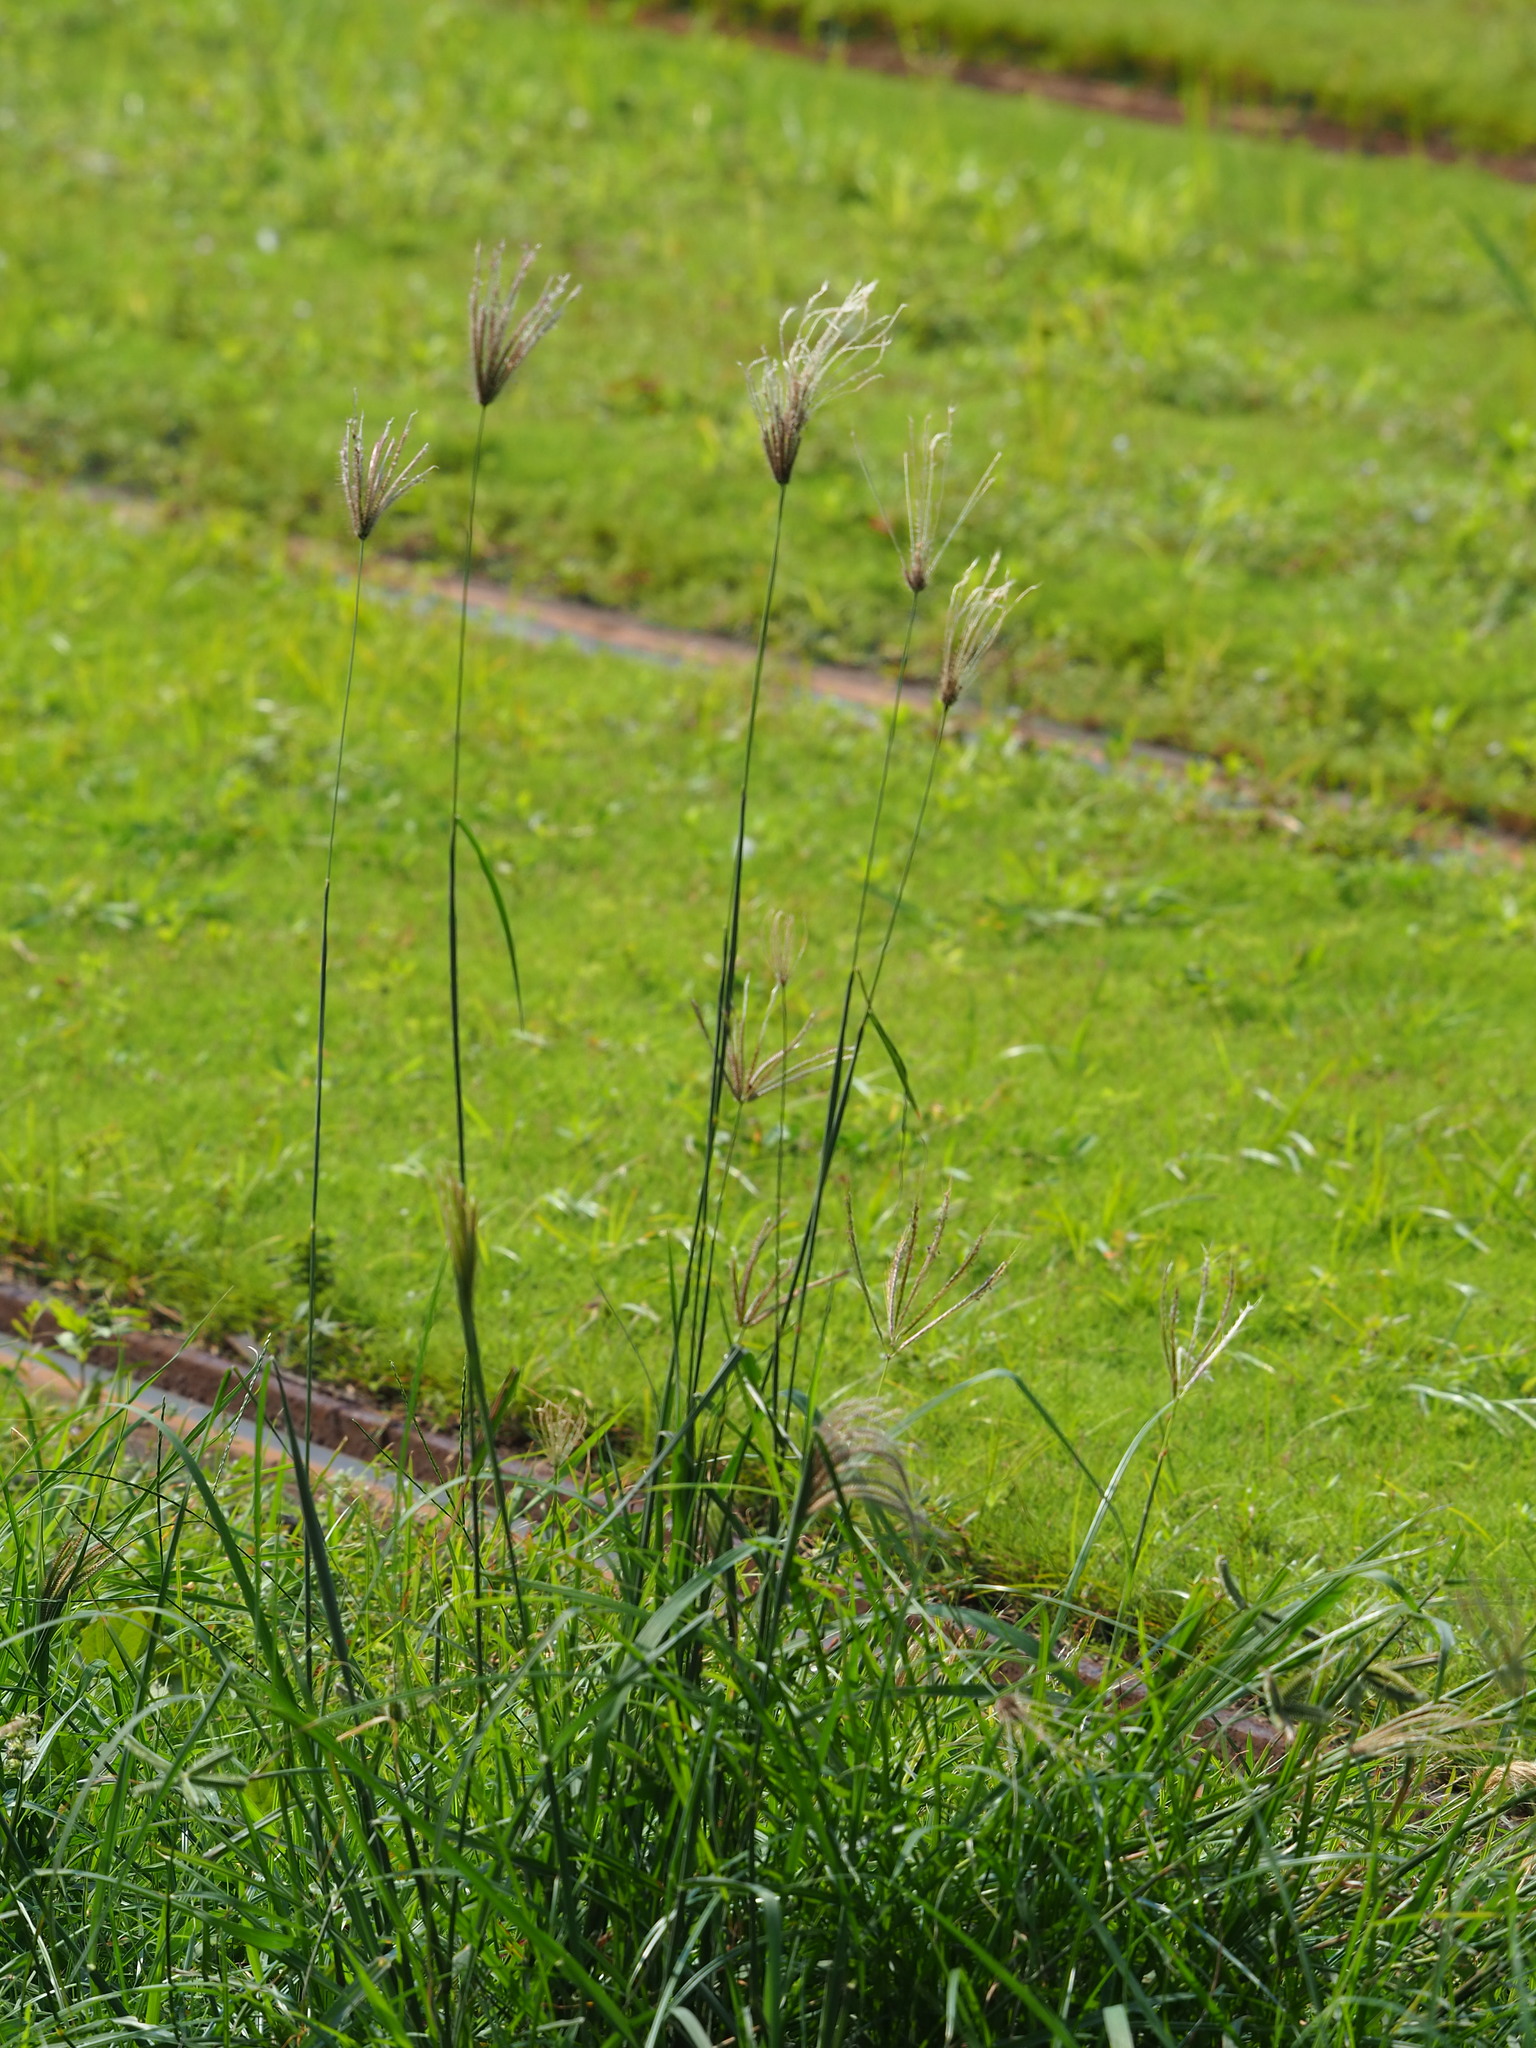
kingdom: Plantae
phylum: Tracheophyta
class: Liliopsida
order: Poales
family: Poaceae
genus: Chloris
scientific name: Chloris barbata
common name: Swollen fingergrass
